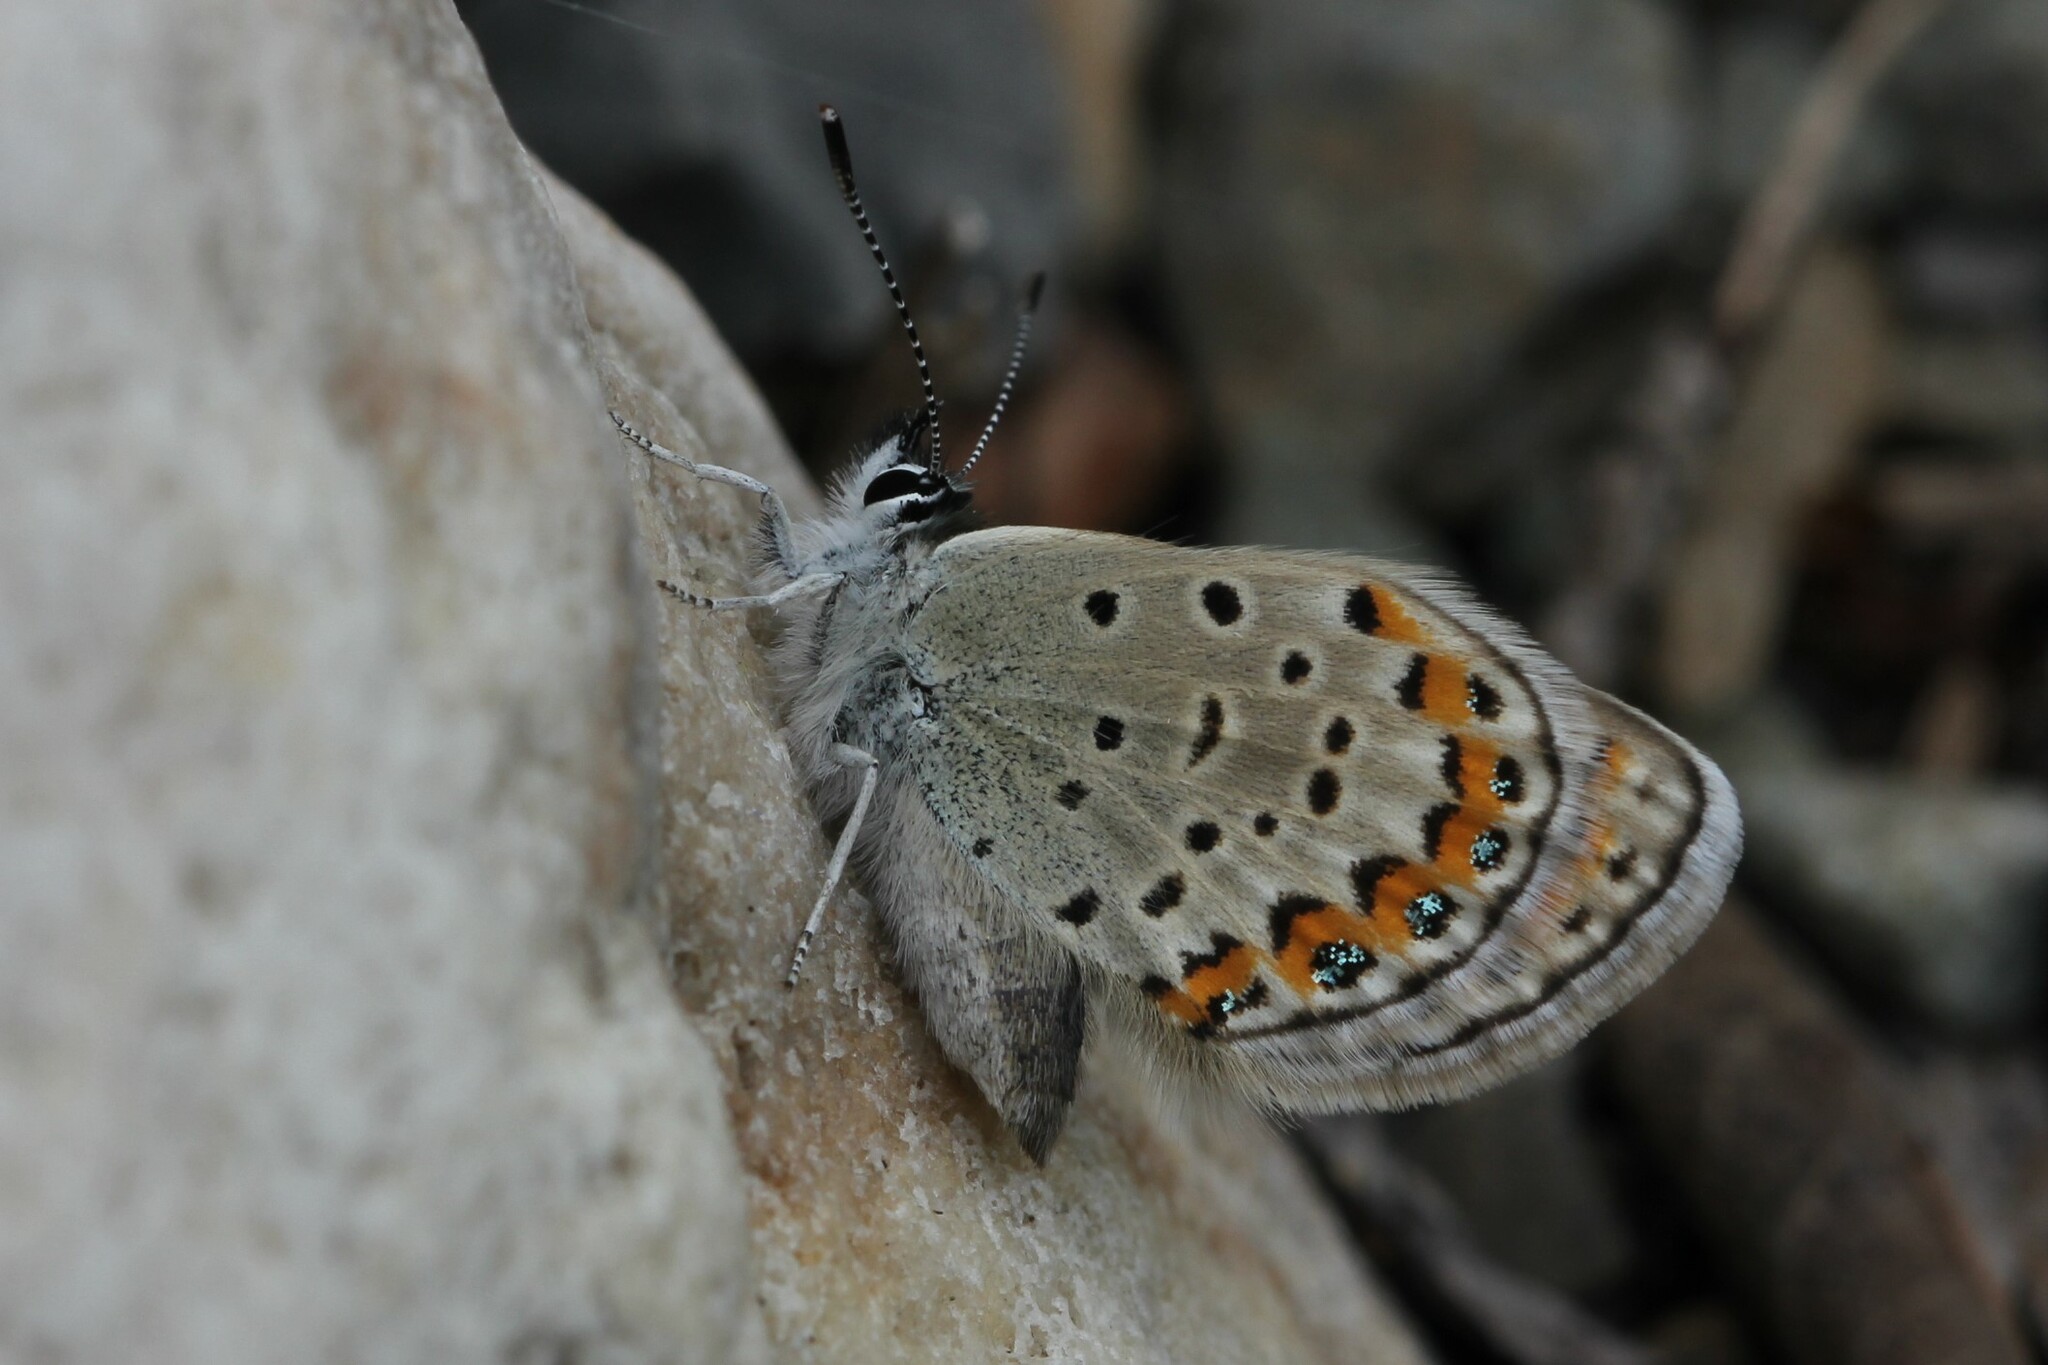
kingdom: Animalia
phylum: Arthropoda
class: Insecta
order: Lepidoptera
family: Lycaenidae
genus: Lycaeides
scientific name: Lycaeides idas
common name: Northern blue
